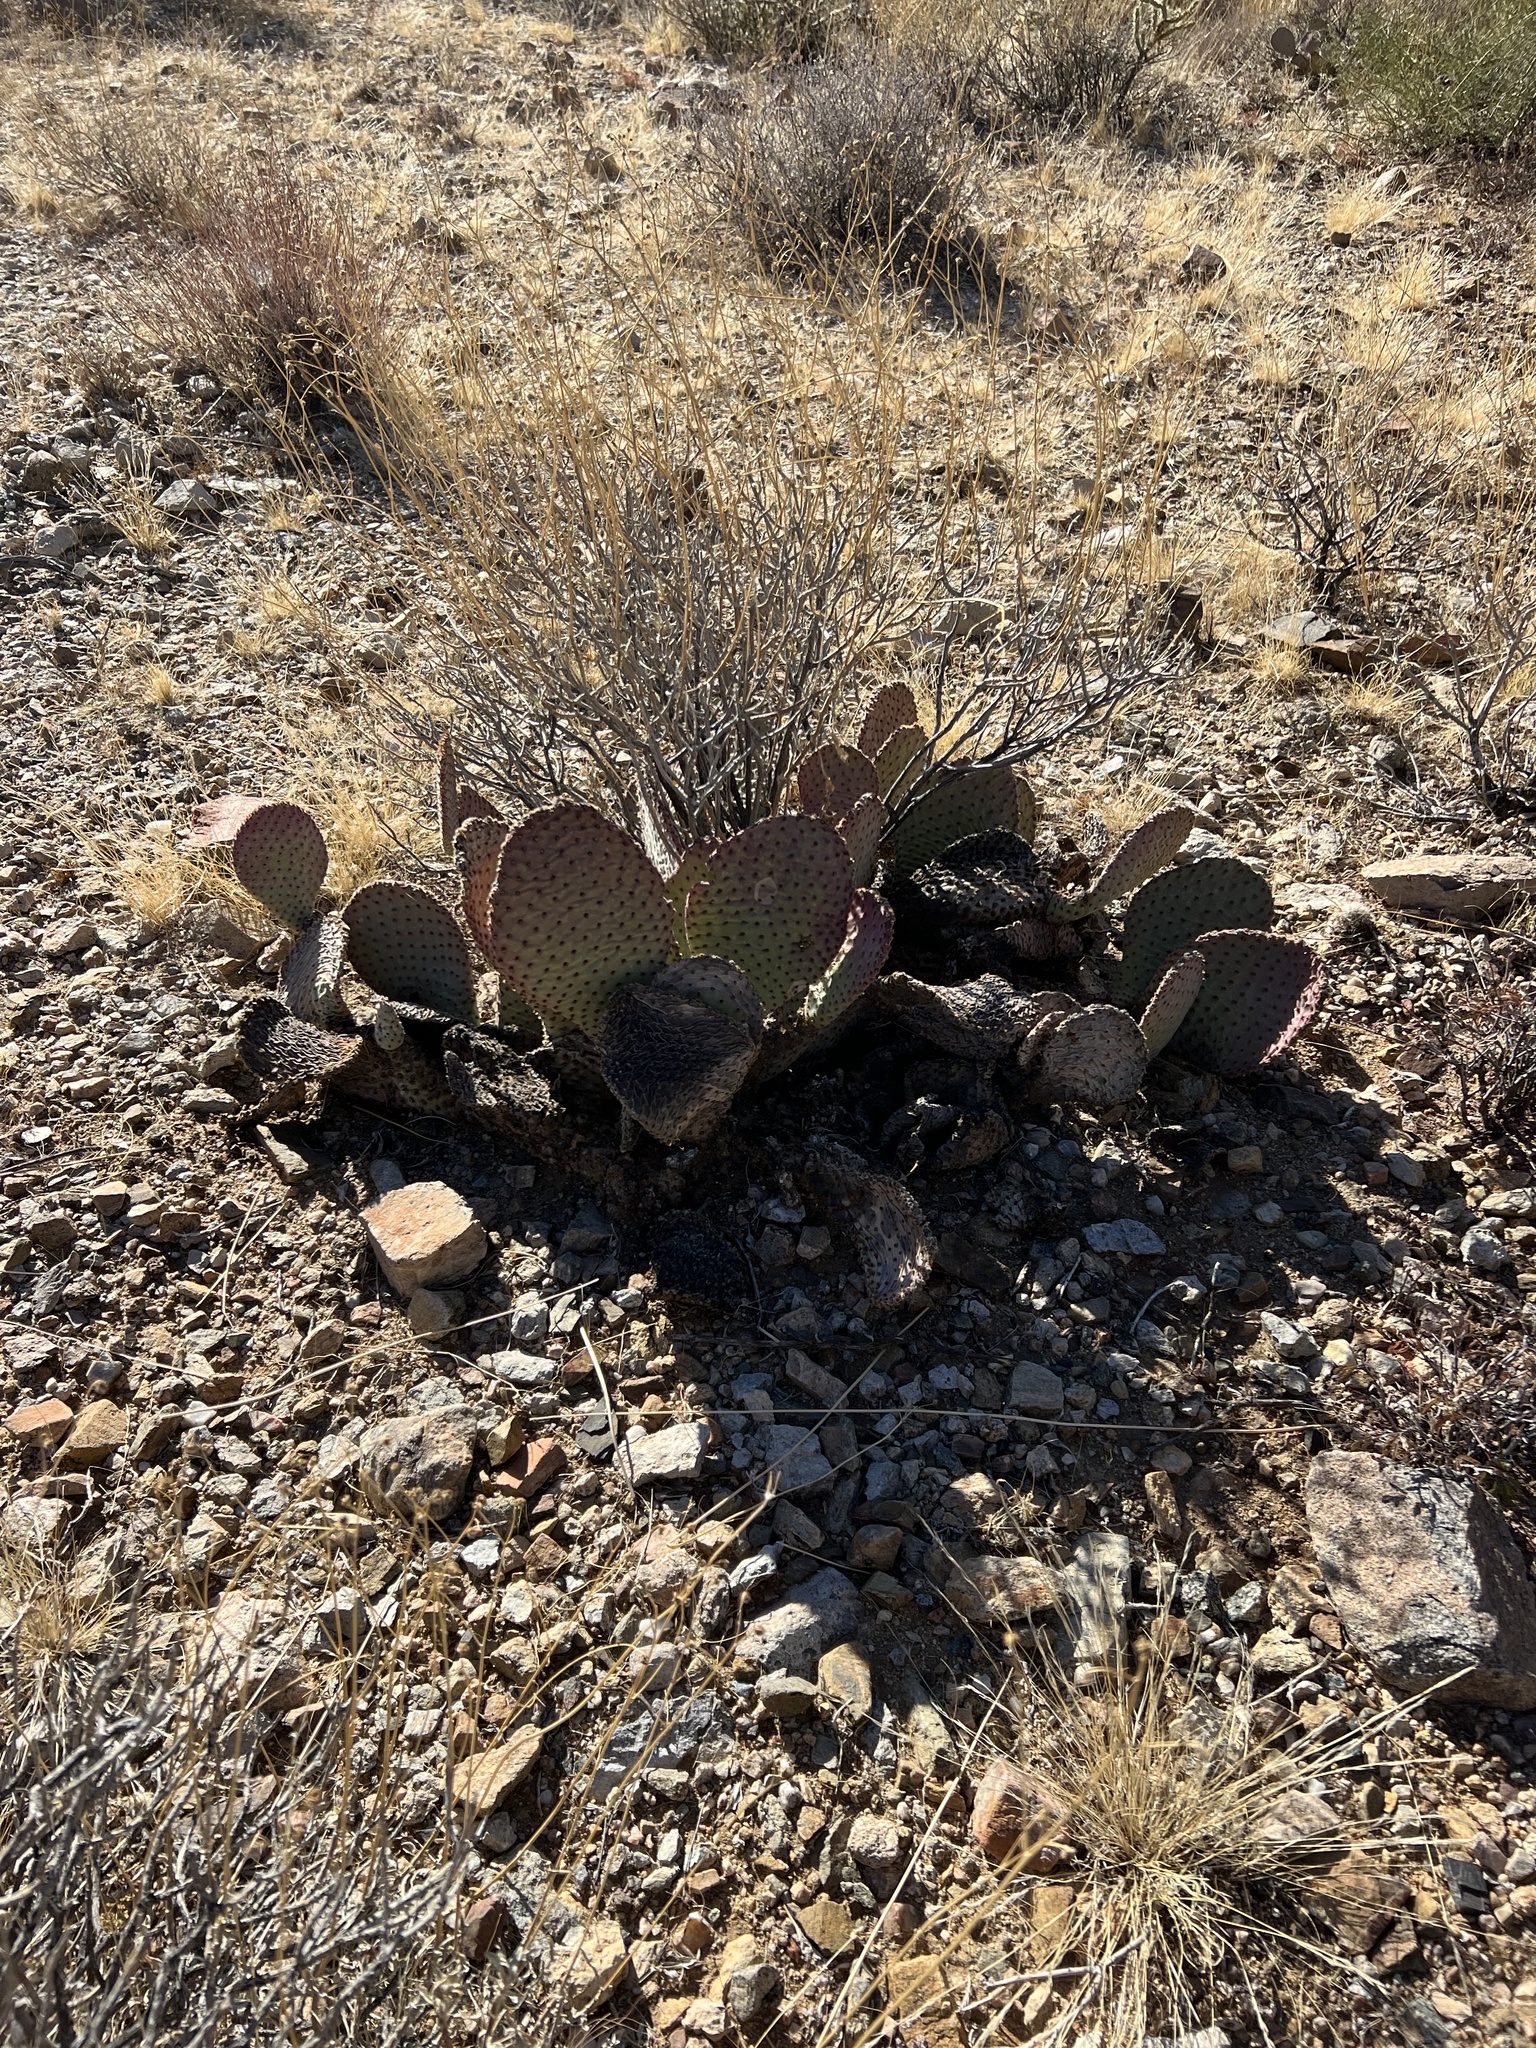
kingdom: Plantae
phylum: Tracheophyta
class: Magnoliopsida
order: Caryophyllales
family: Cactaceae
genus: Opuntia
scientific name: Opuntia basilaris
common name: Beavertail prickly-pear
